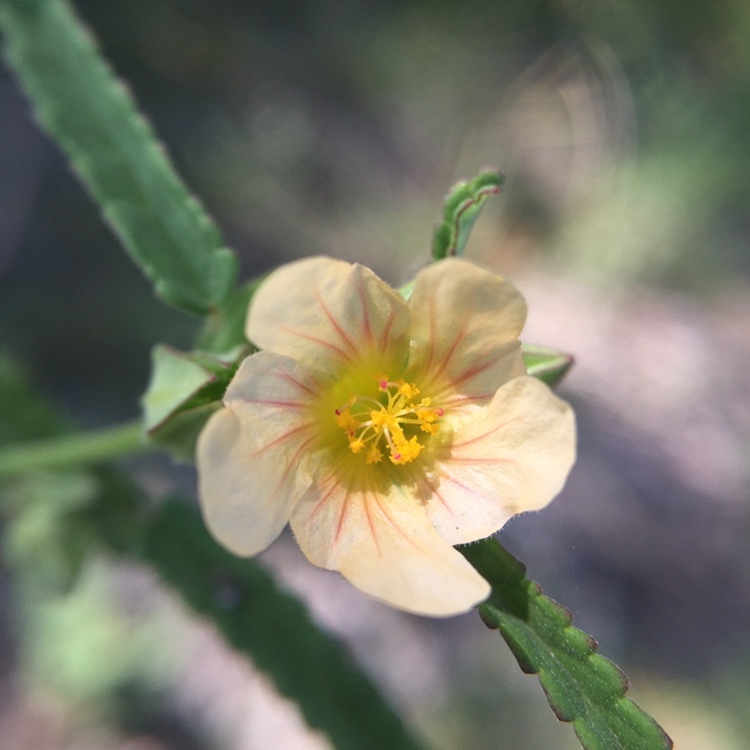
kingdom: Plantae
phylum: Tracheophyta
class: Magnoliopsida
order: Malvales
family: Malvaceae
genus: Sida
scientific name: Sida spinosa
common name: Prickly fanpetals
